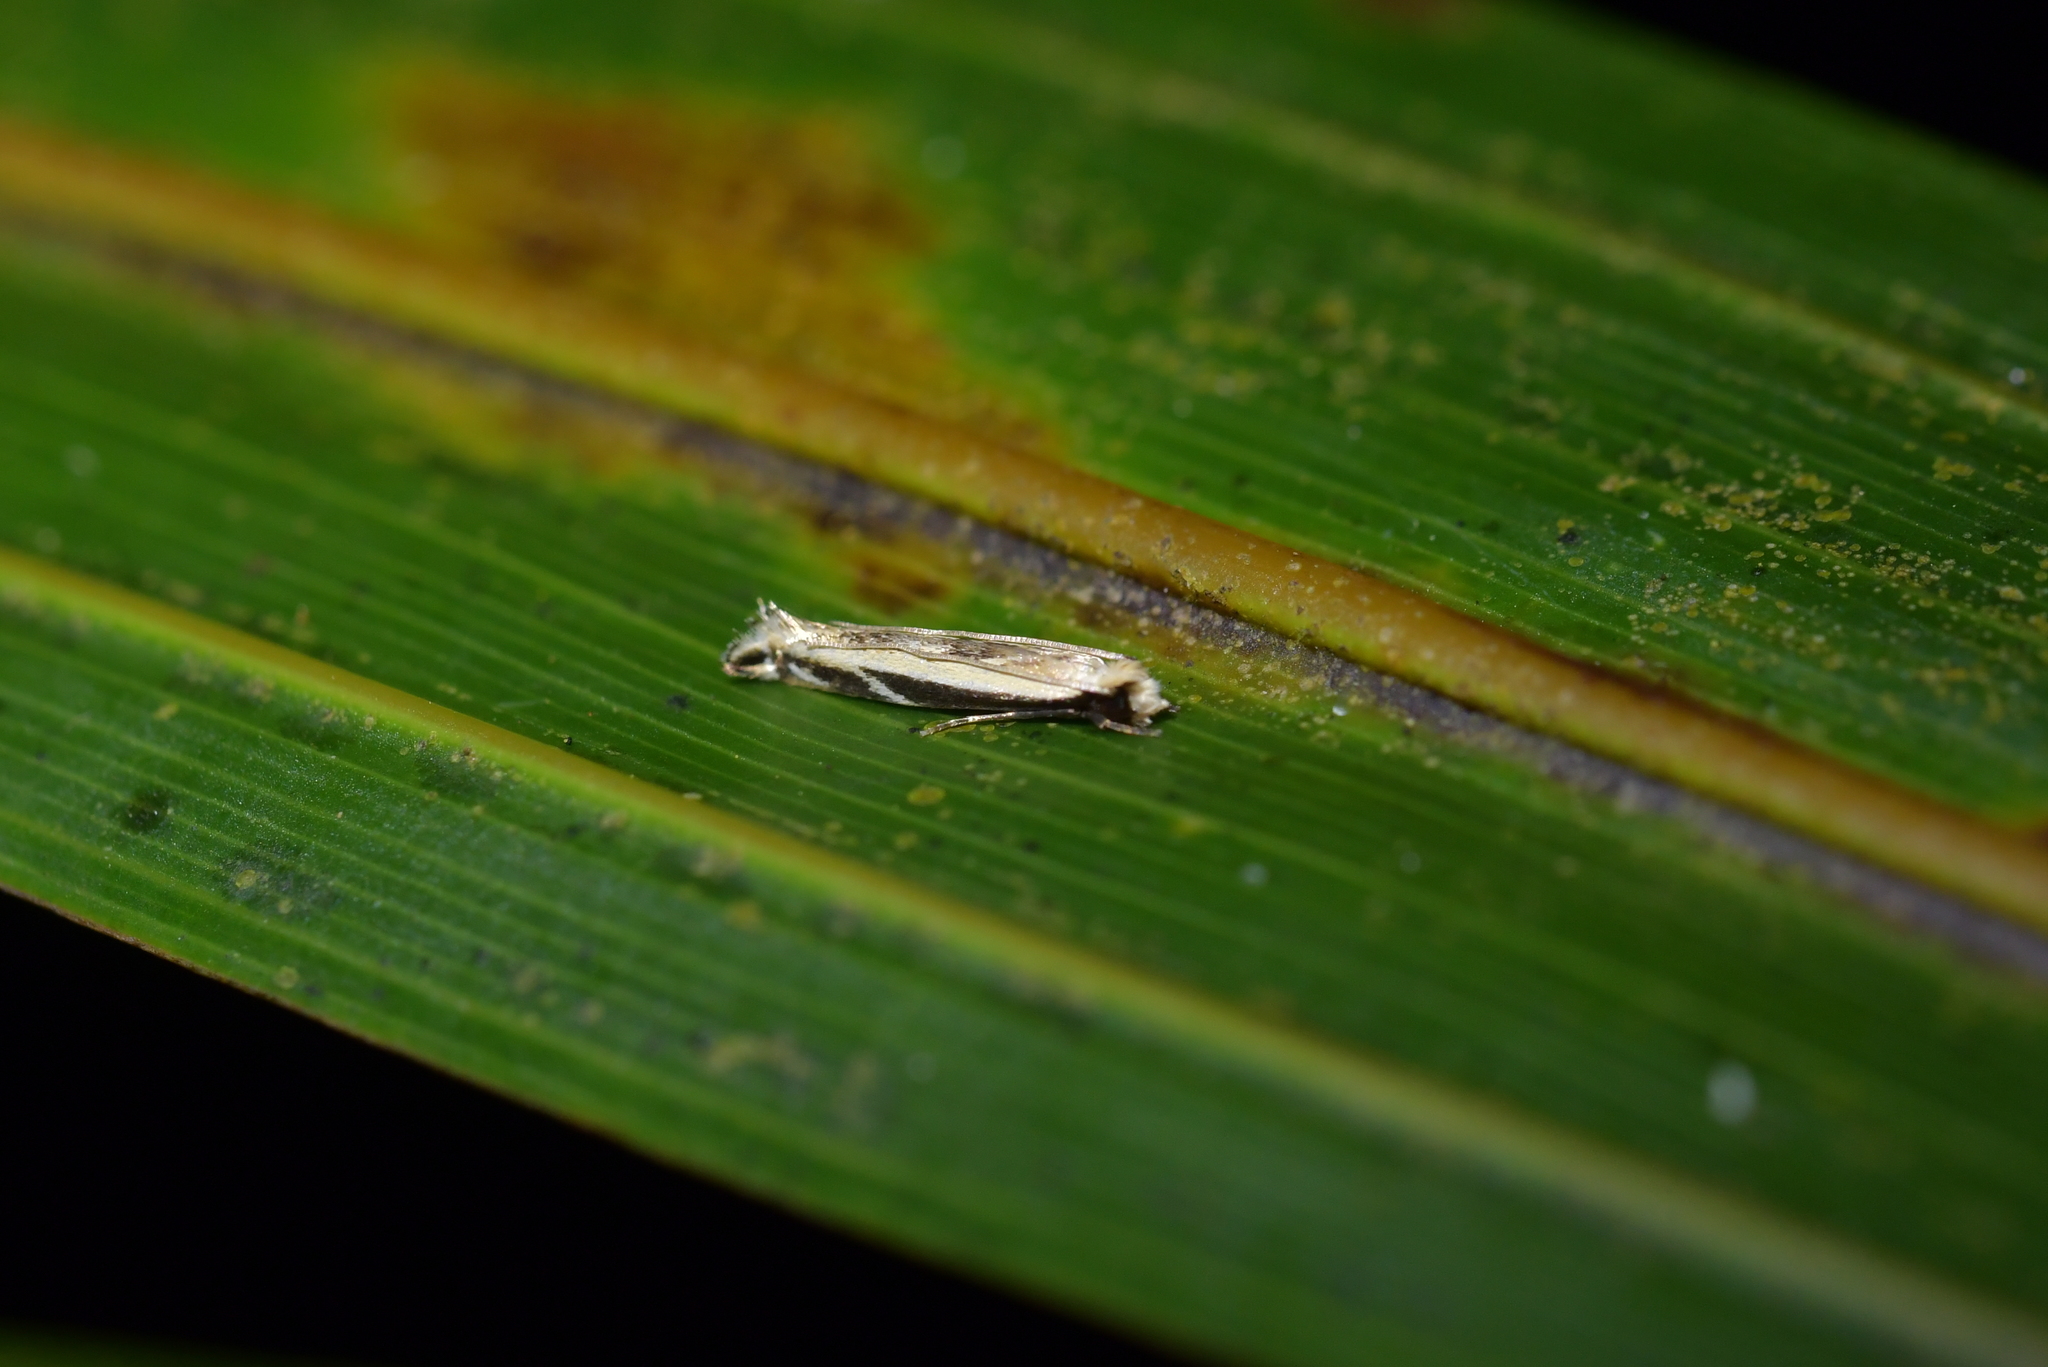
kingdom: Animalia
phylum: Arthropoda
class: Insecta
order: Lepidoptera
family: Tineidae
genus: Erechthias
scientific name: Erechthias terminella
